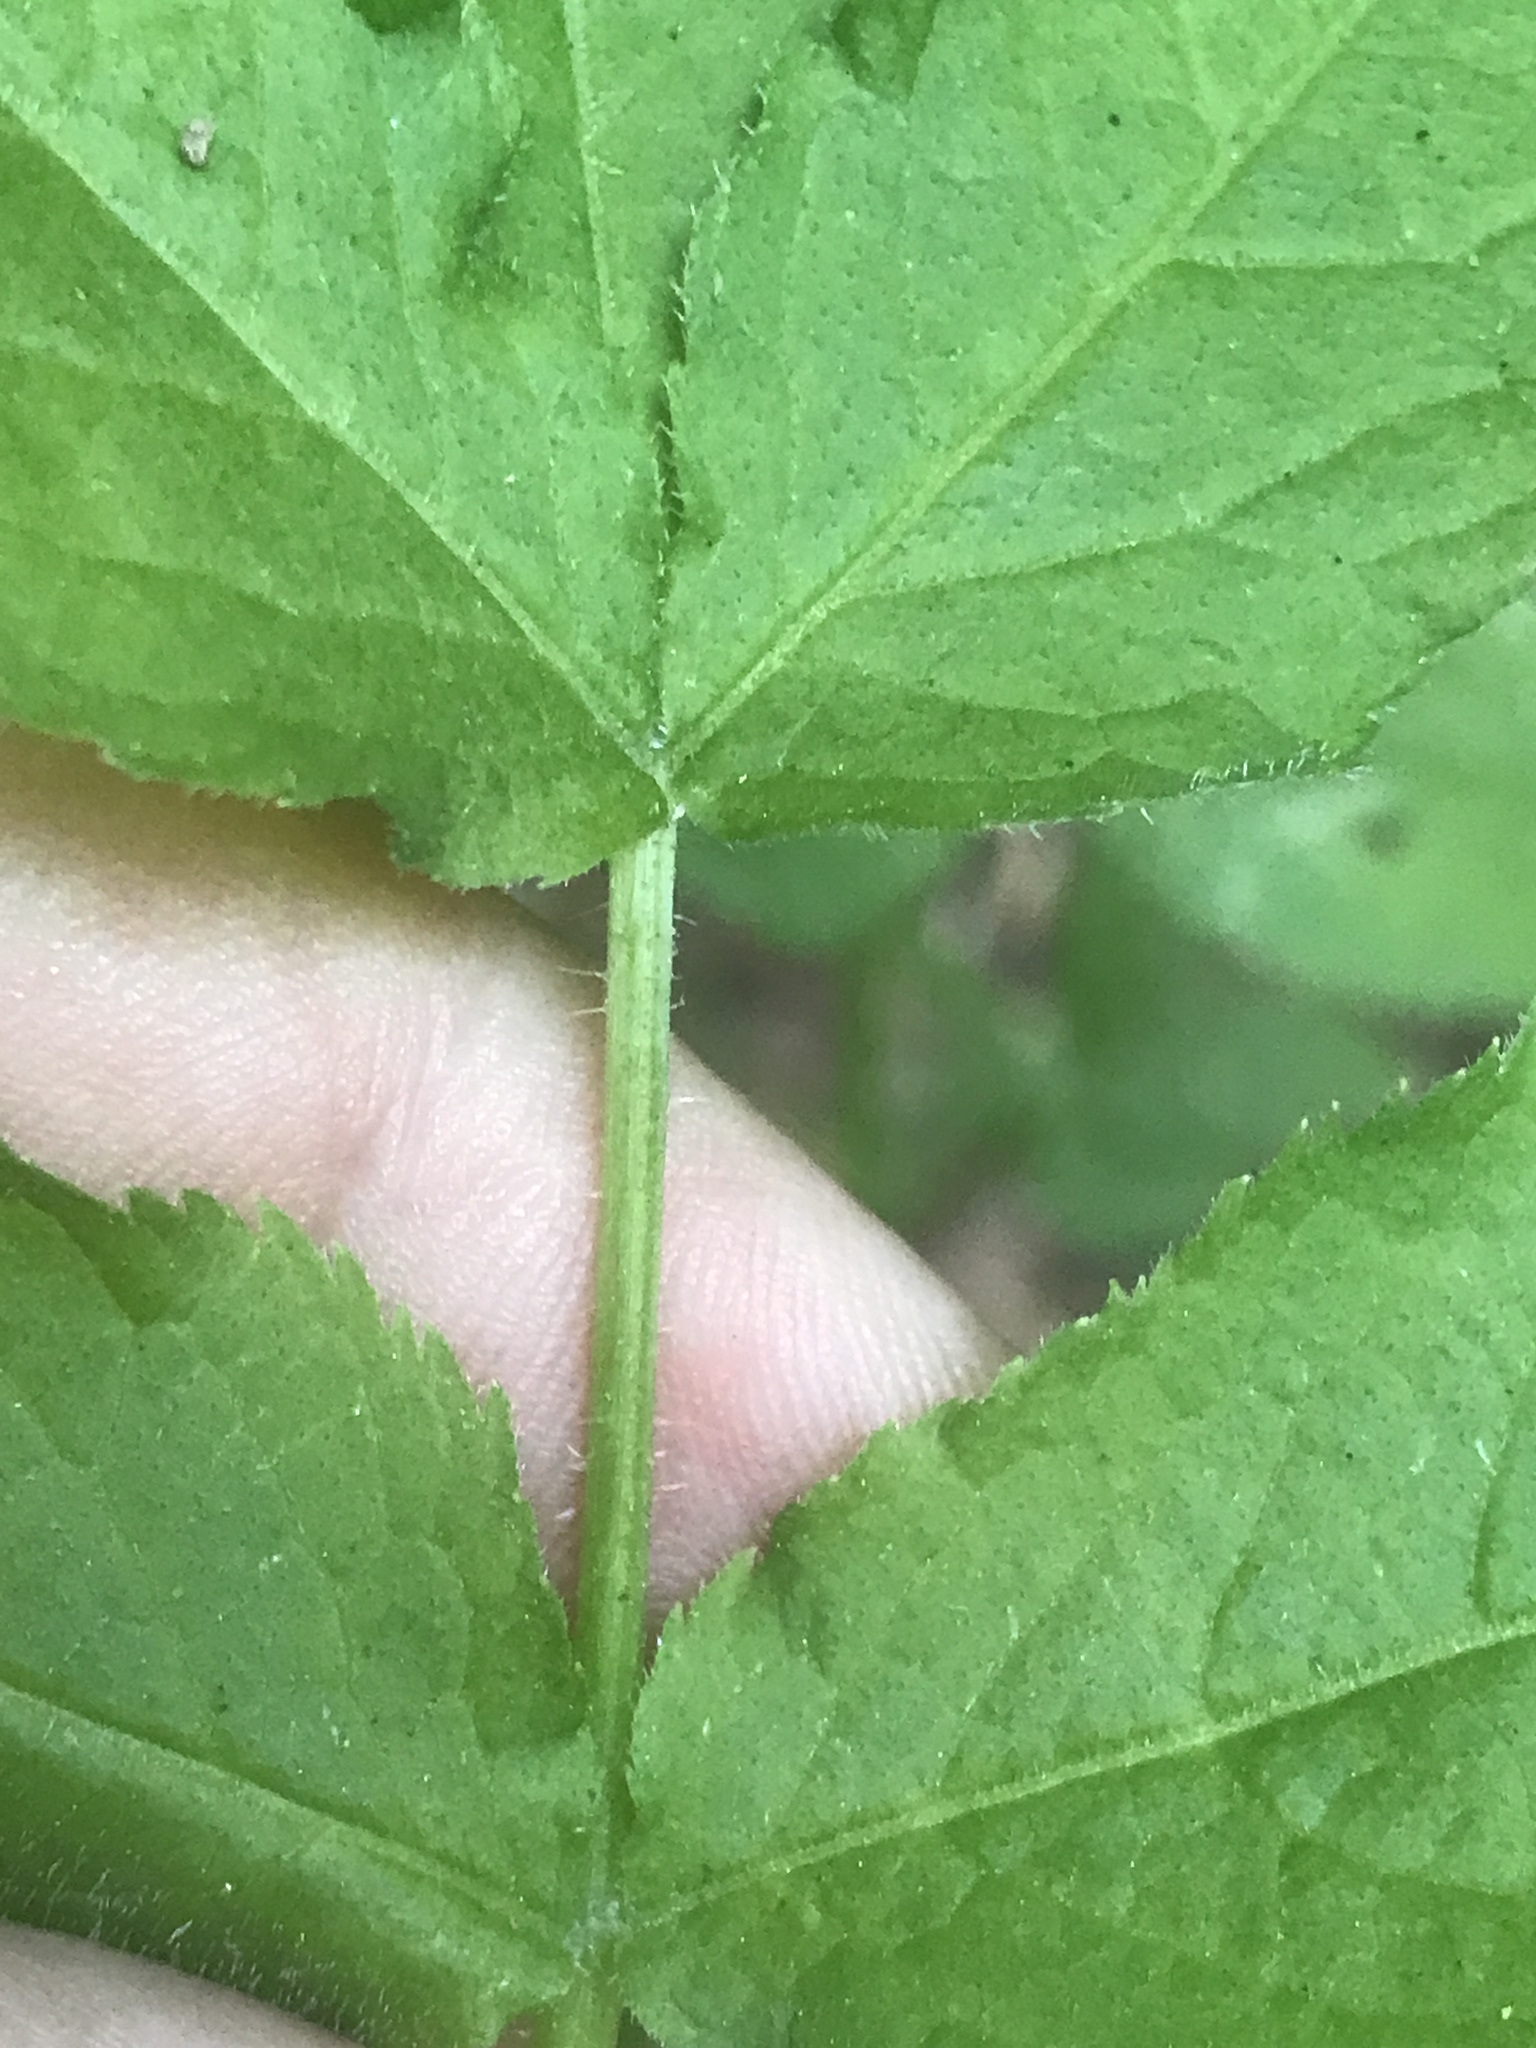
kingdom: Plantae
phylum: Tracheophyta
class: Magnoliopsida
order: Dipsacales
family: Viburnaceae
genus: Sambucus
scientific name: Sambucus racemosa
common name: Red-berried elder
